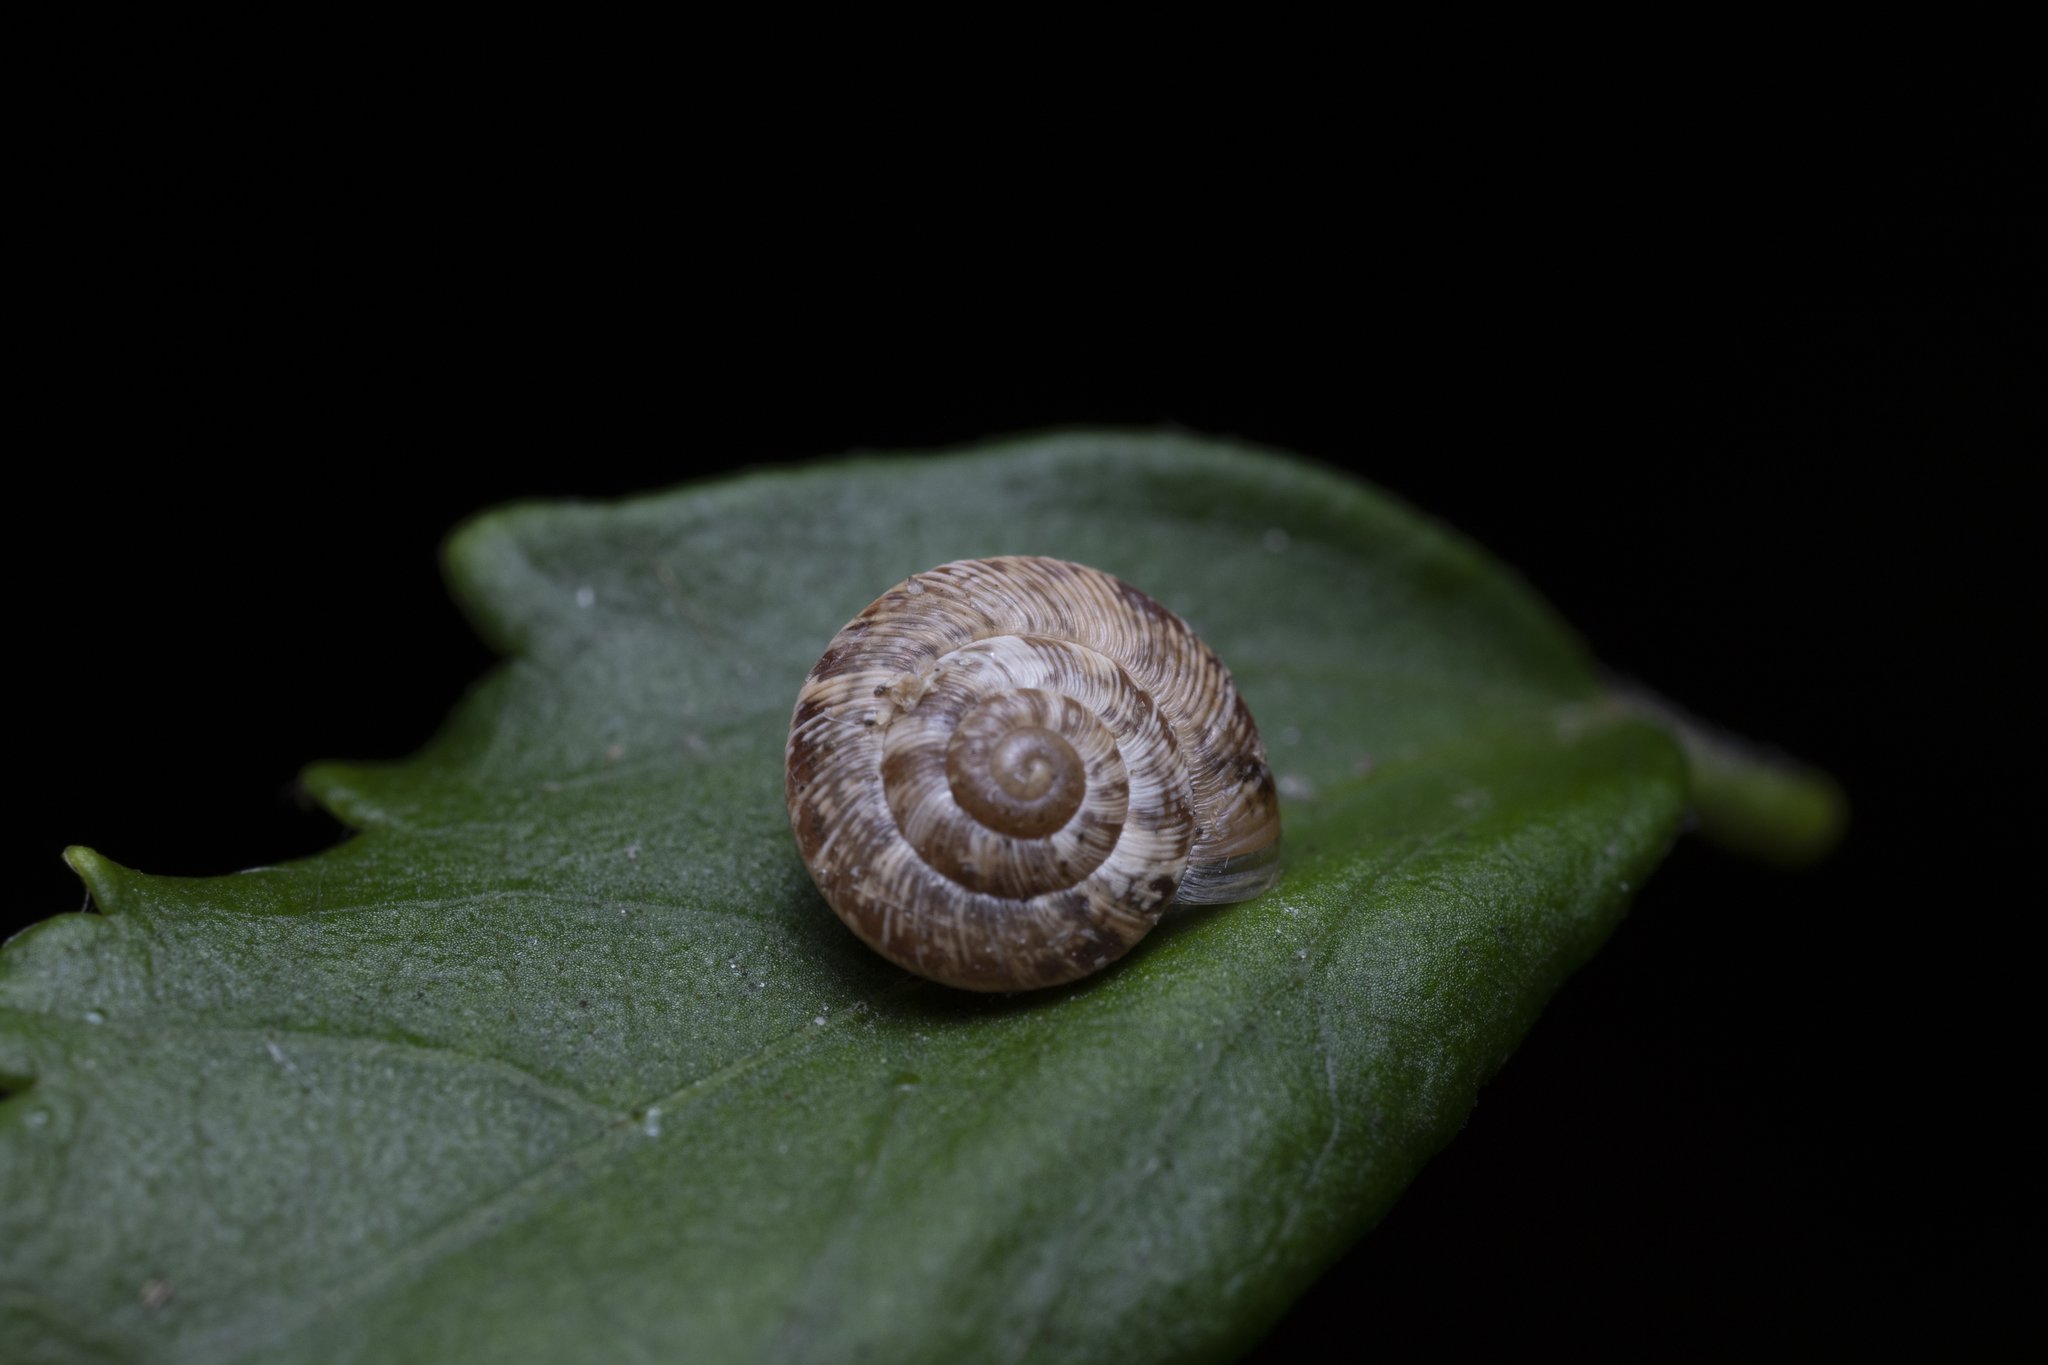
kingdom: Animalia
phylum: Mollusca
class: Gastropoda
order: Stylommatophora
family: Geomitridae
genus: Xeroplexa
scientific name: Xeroplexa intersecta
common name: Wrinkled snail
